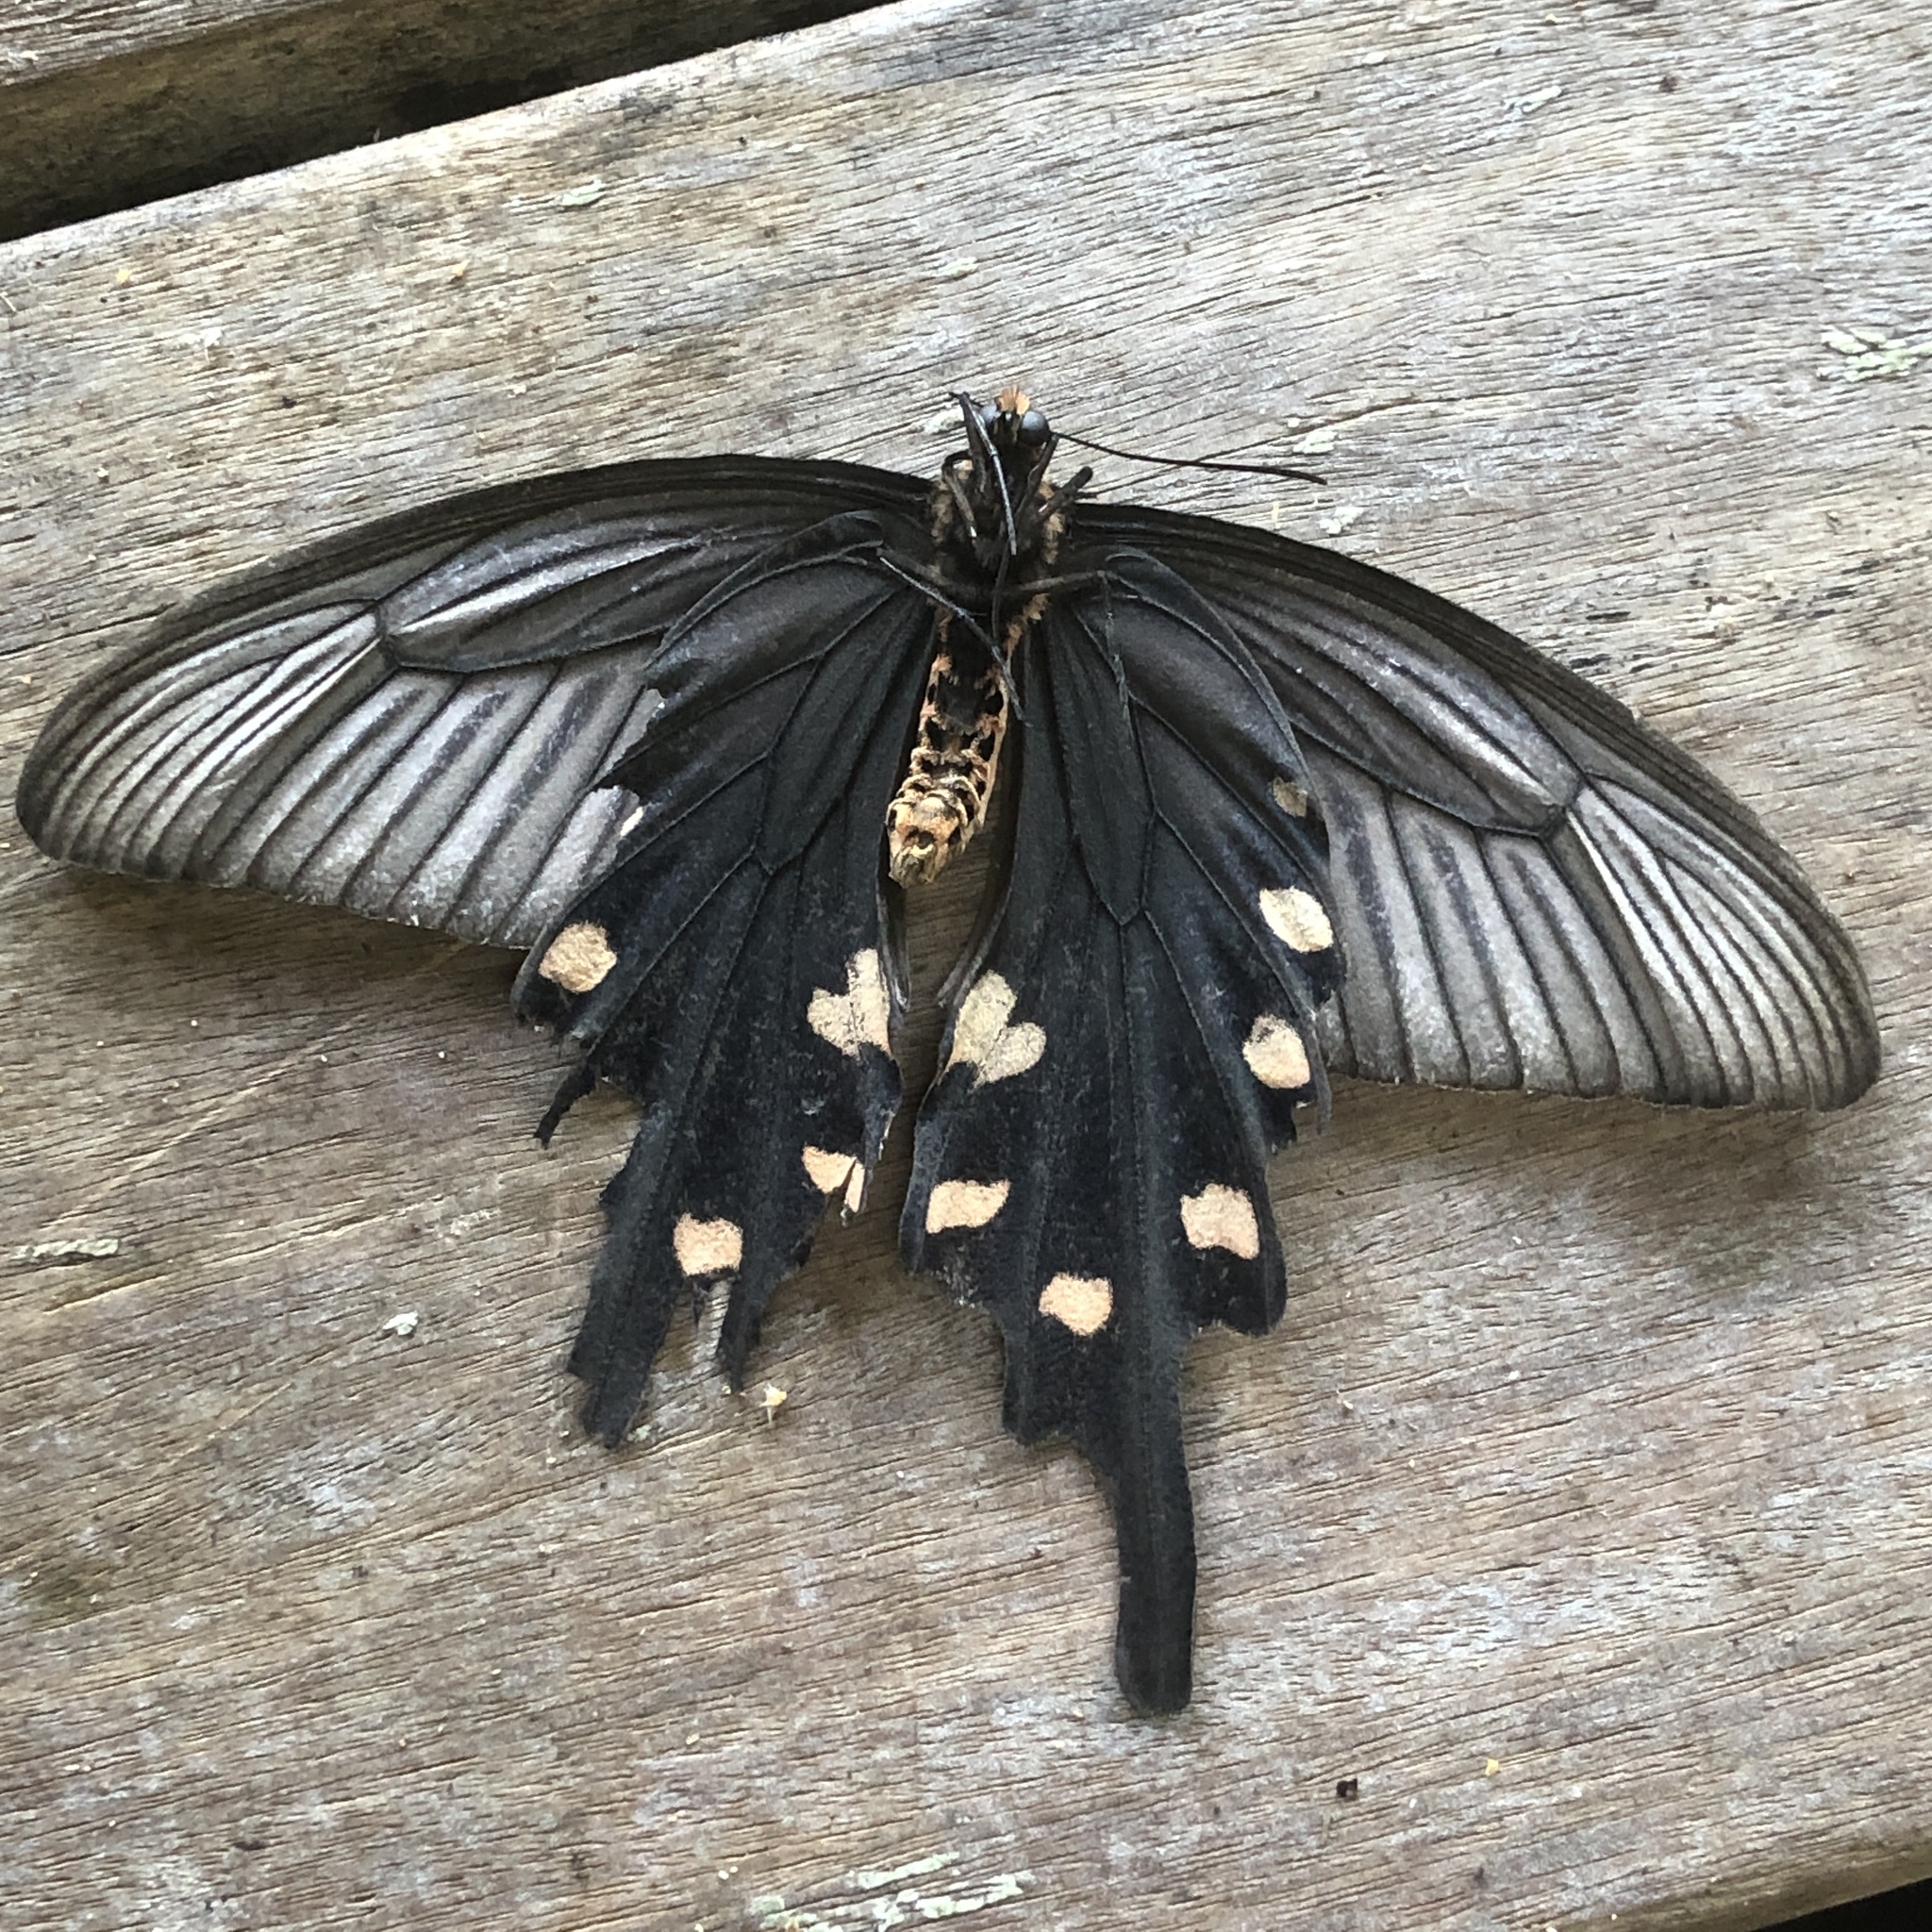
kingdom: Animalia
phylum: Arthropoda
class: Insecta
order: Lepidoptera
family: Papilionidae
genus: Byasa
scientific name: Byasa alcinous
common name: Chinese windmill
